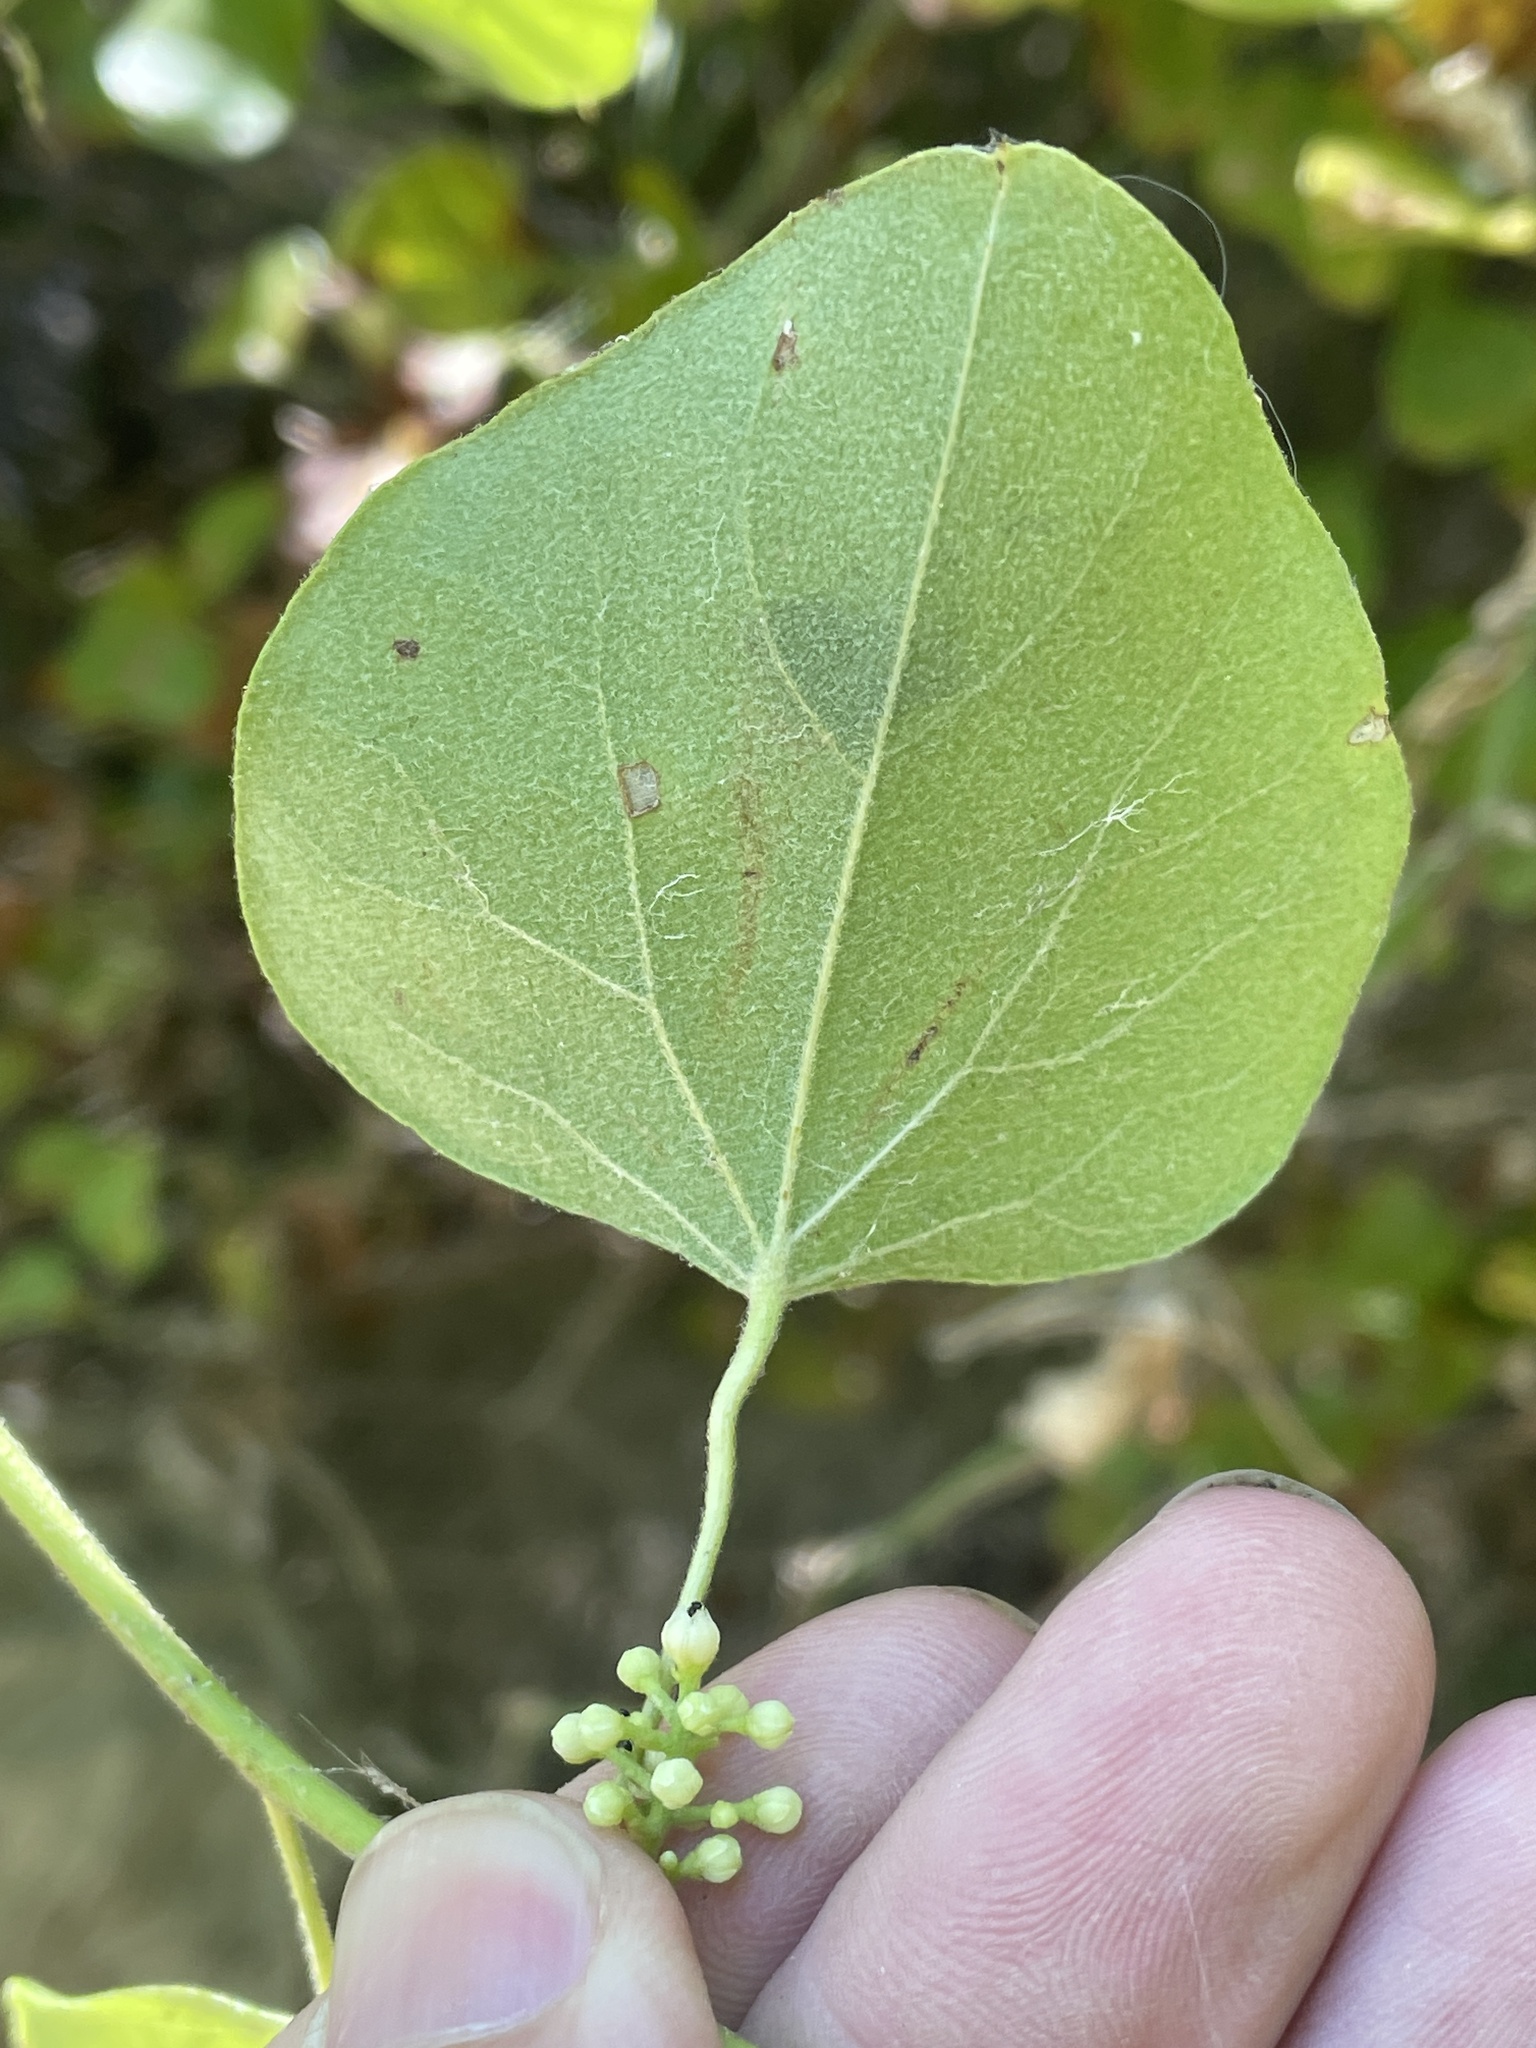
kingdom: Plantae
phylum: Tracheophyta
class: Magnoliopsida
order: Ranunculales
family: Menispermaceae
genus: Cocculus
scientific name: Cocculus carolinus
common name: Carolina moonseed
